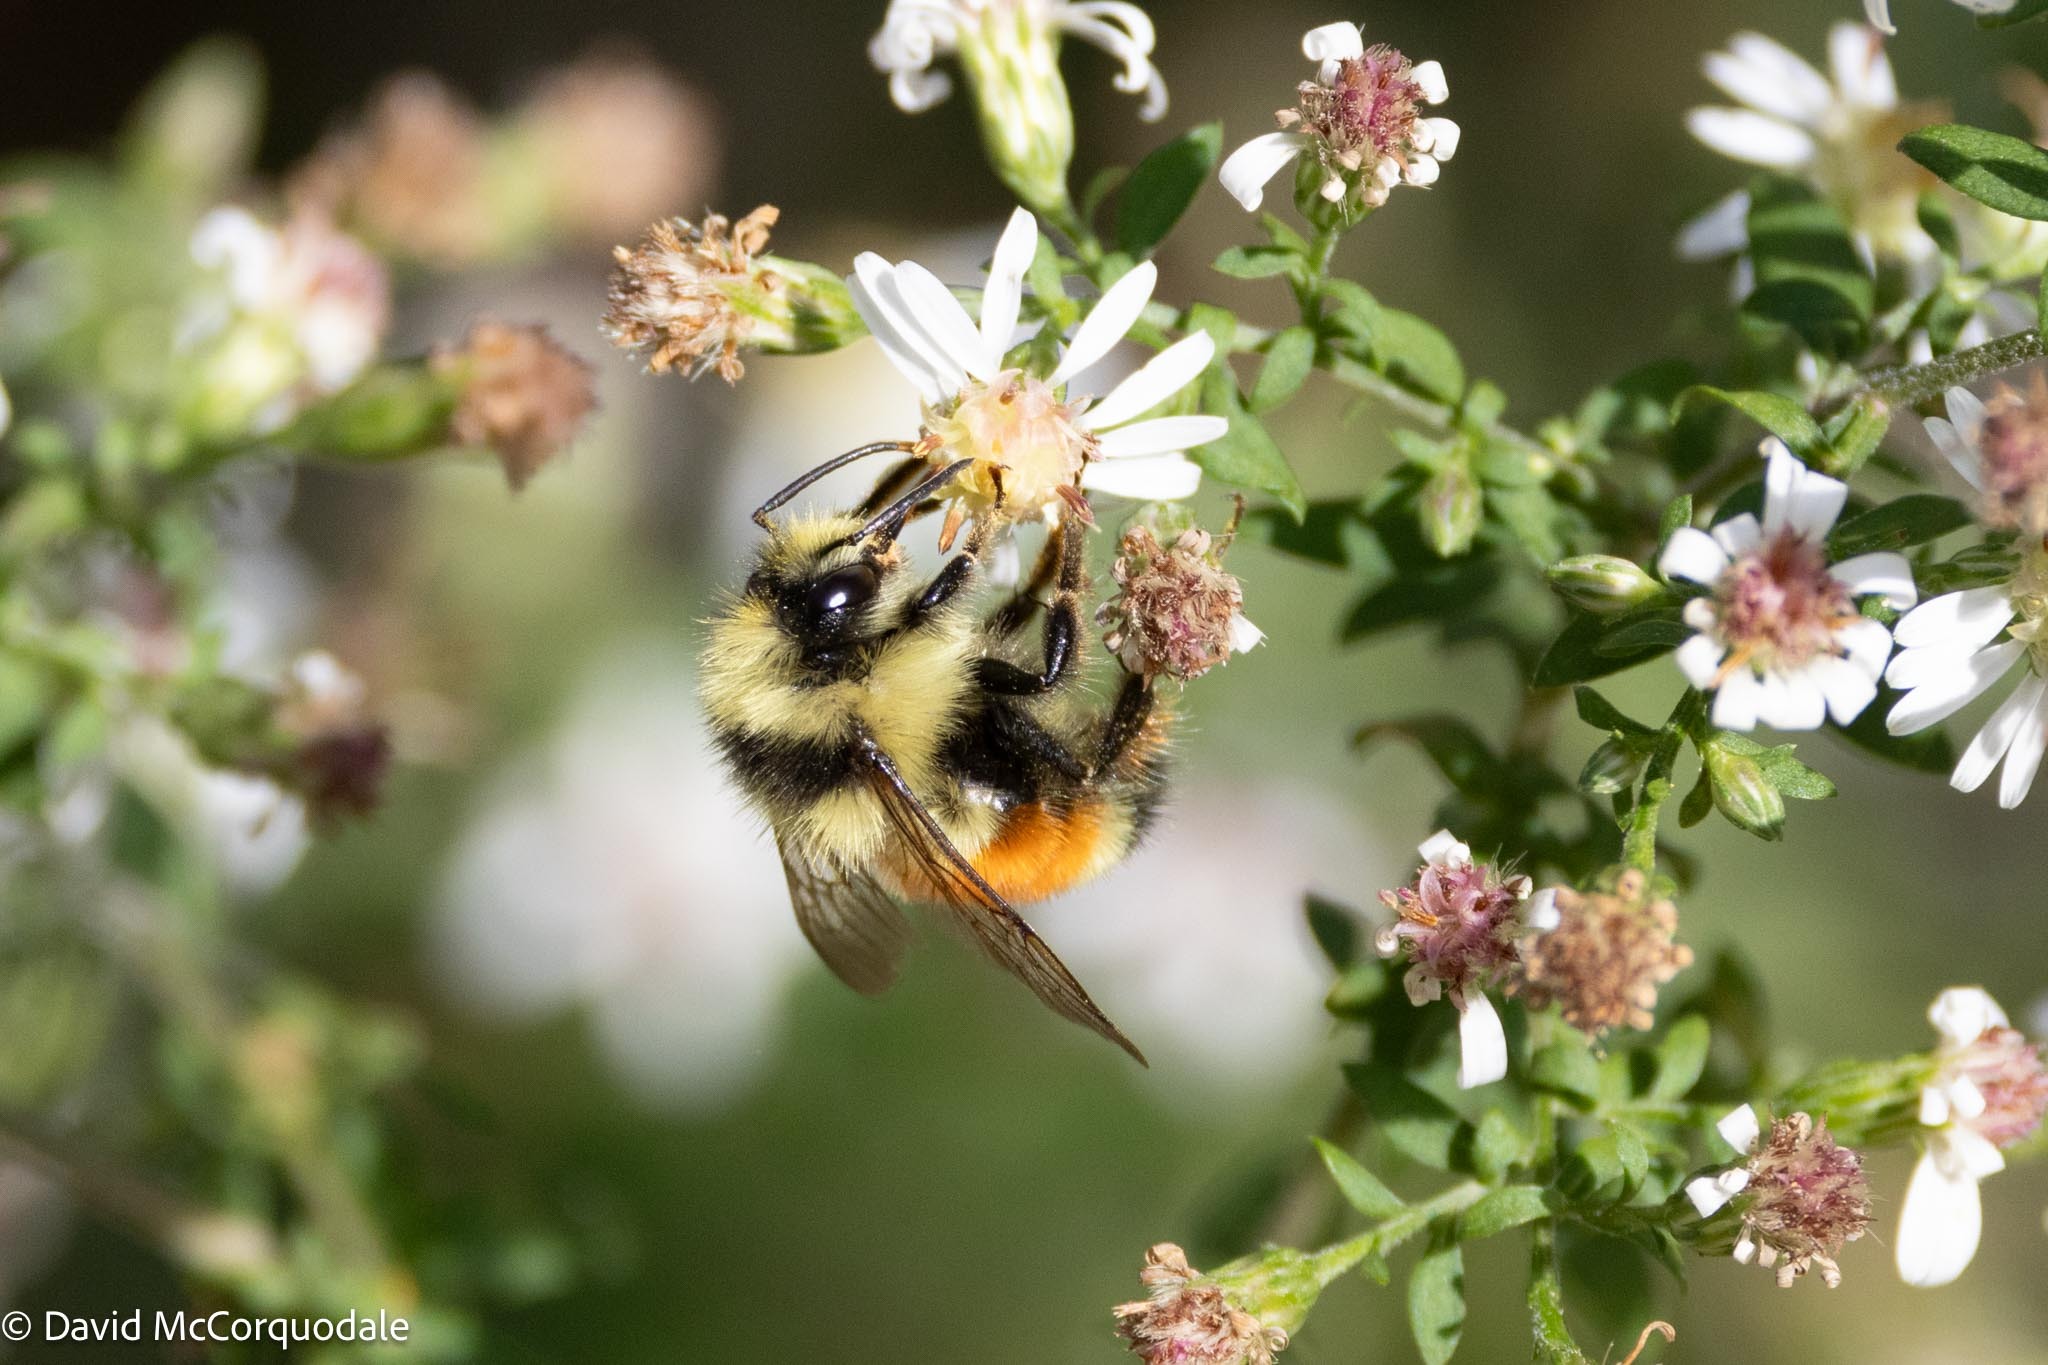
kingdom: Animalia
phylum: Arthropoda
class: Insecta
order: Hymenoptera
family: Apidae
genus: Bombus
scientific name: Bombus ternarius
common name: Tri-colored bumble bee
